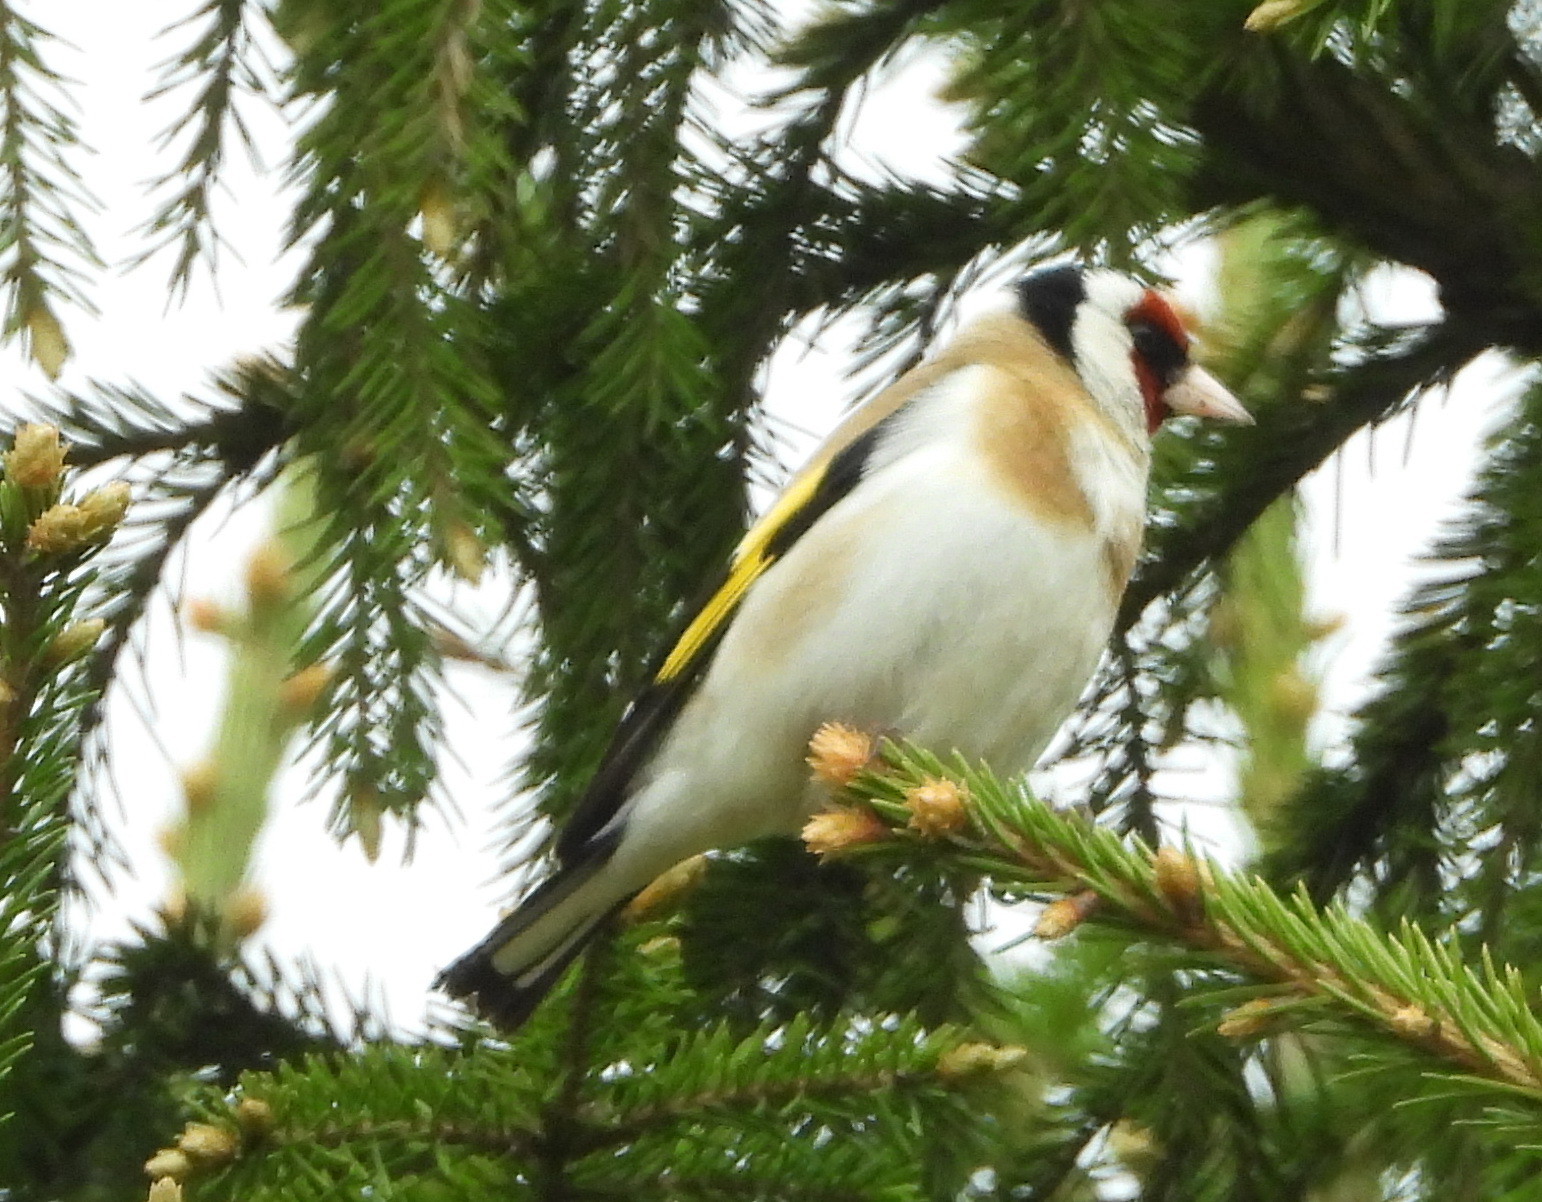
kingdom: Animalia
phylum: Chordata
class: Aves
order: Passeriformes
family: Fringillidae
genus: Carduelis
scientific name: Carduelis carduelis
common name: European goldfinch
